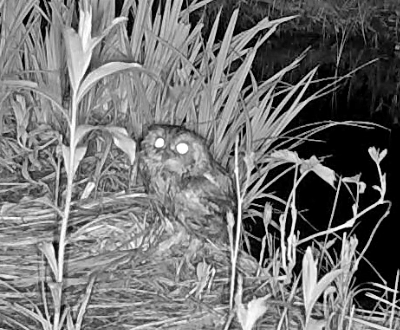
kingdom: Animalia
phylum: Chordata
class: Aves
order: Strigiformes
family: Strigidae
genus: Megascops
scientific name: Megascops asio
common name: Eastern screech-owl
